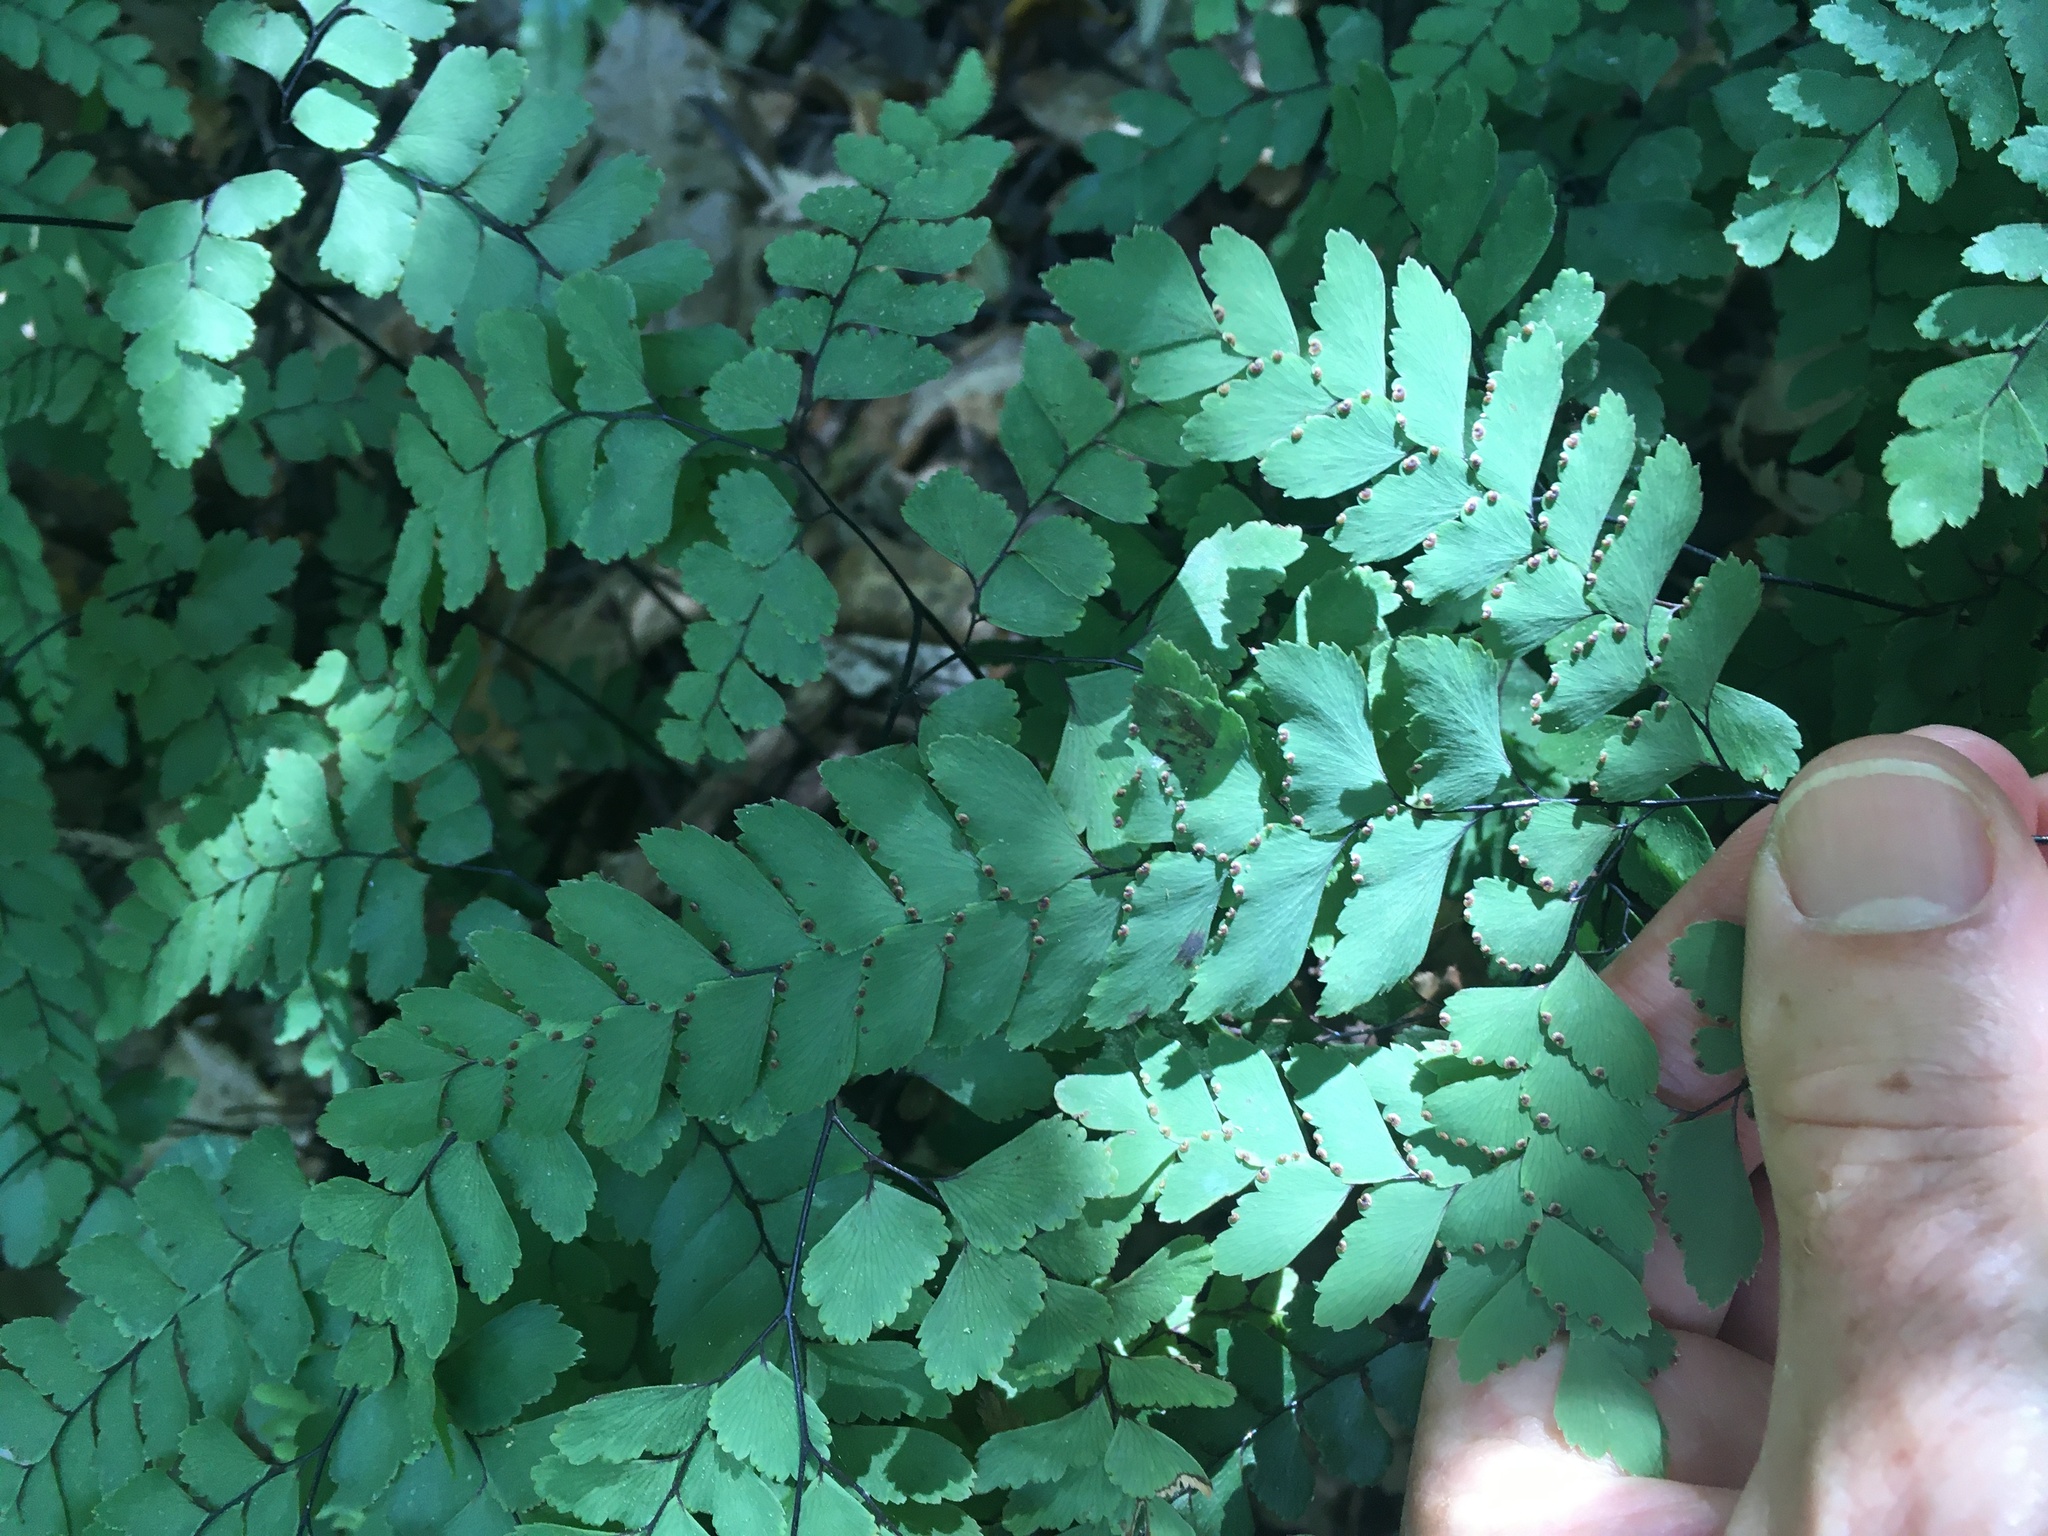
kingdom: Plantae
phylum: Tracheophyta
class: Polypodiopsida
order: Polypodiales
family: Pteridaceae
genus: Adiantum
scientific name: Adiantum cunninghamii
